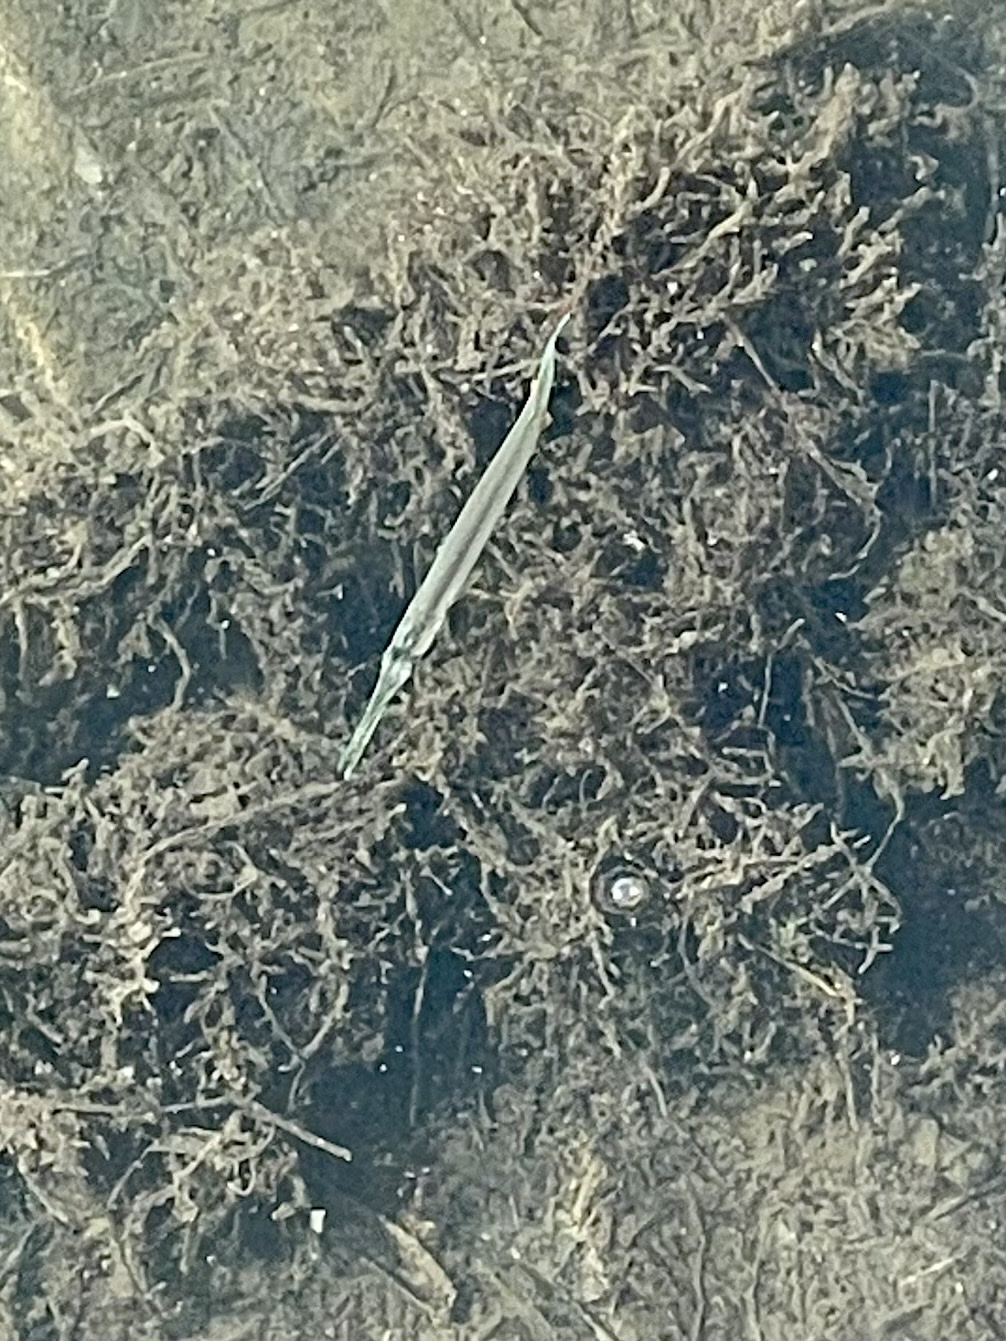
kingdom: Animalia
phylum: Chordata
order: Beloniformes
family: Belonidae
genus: Strongylura
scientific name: Strongylura notata
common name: Redfin needlefish
